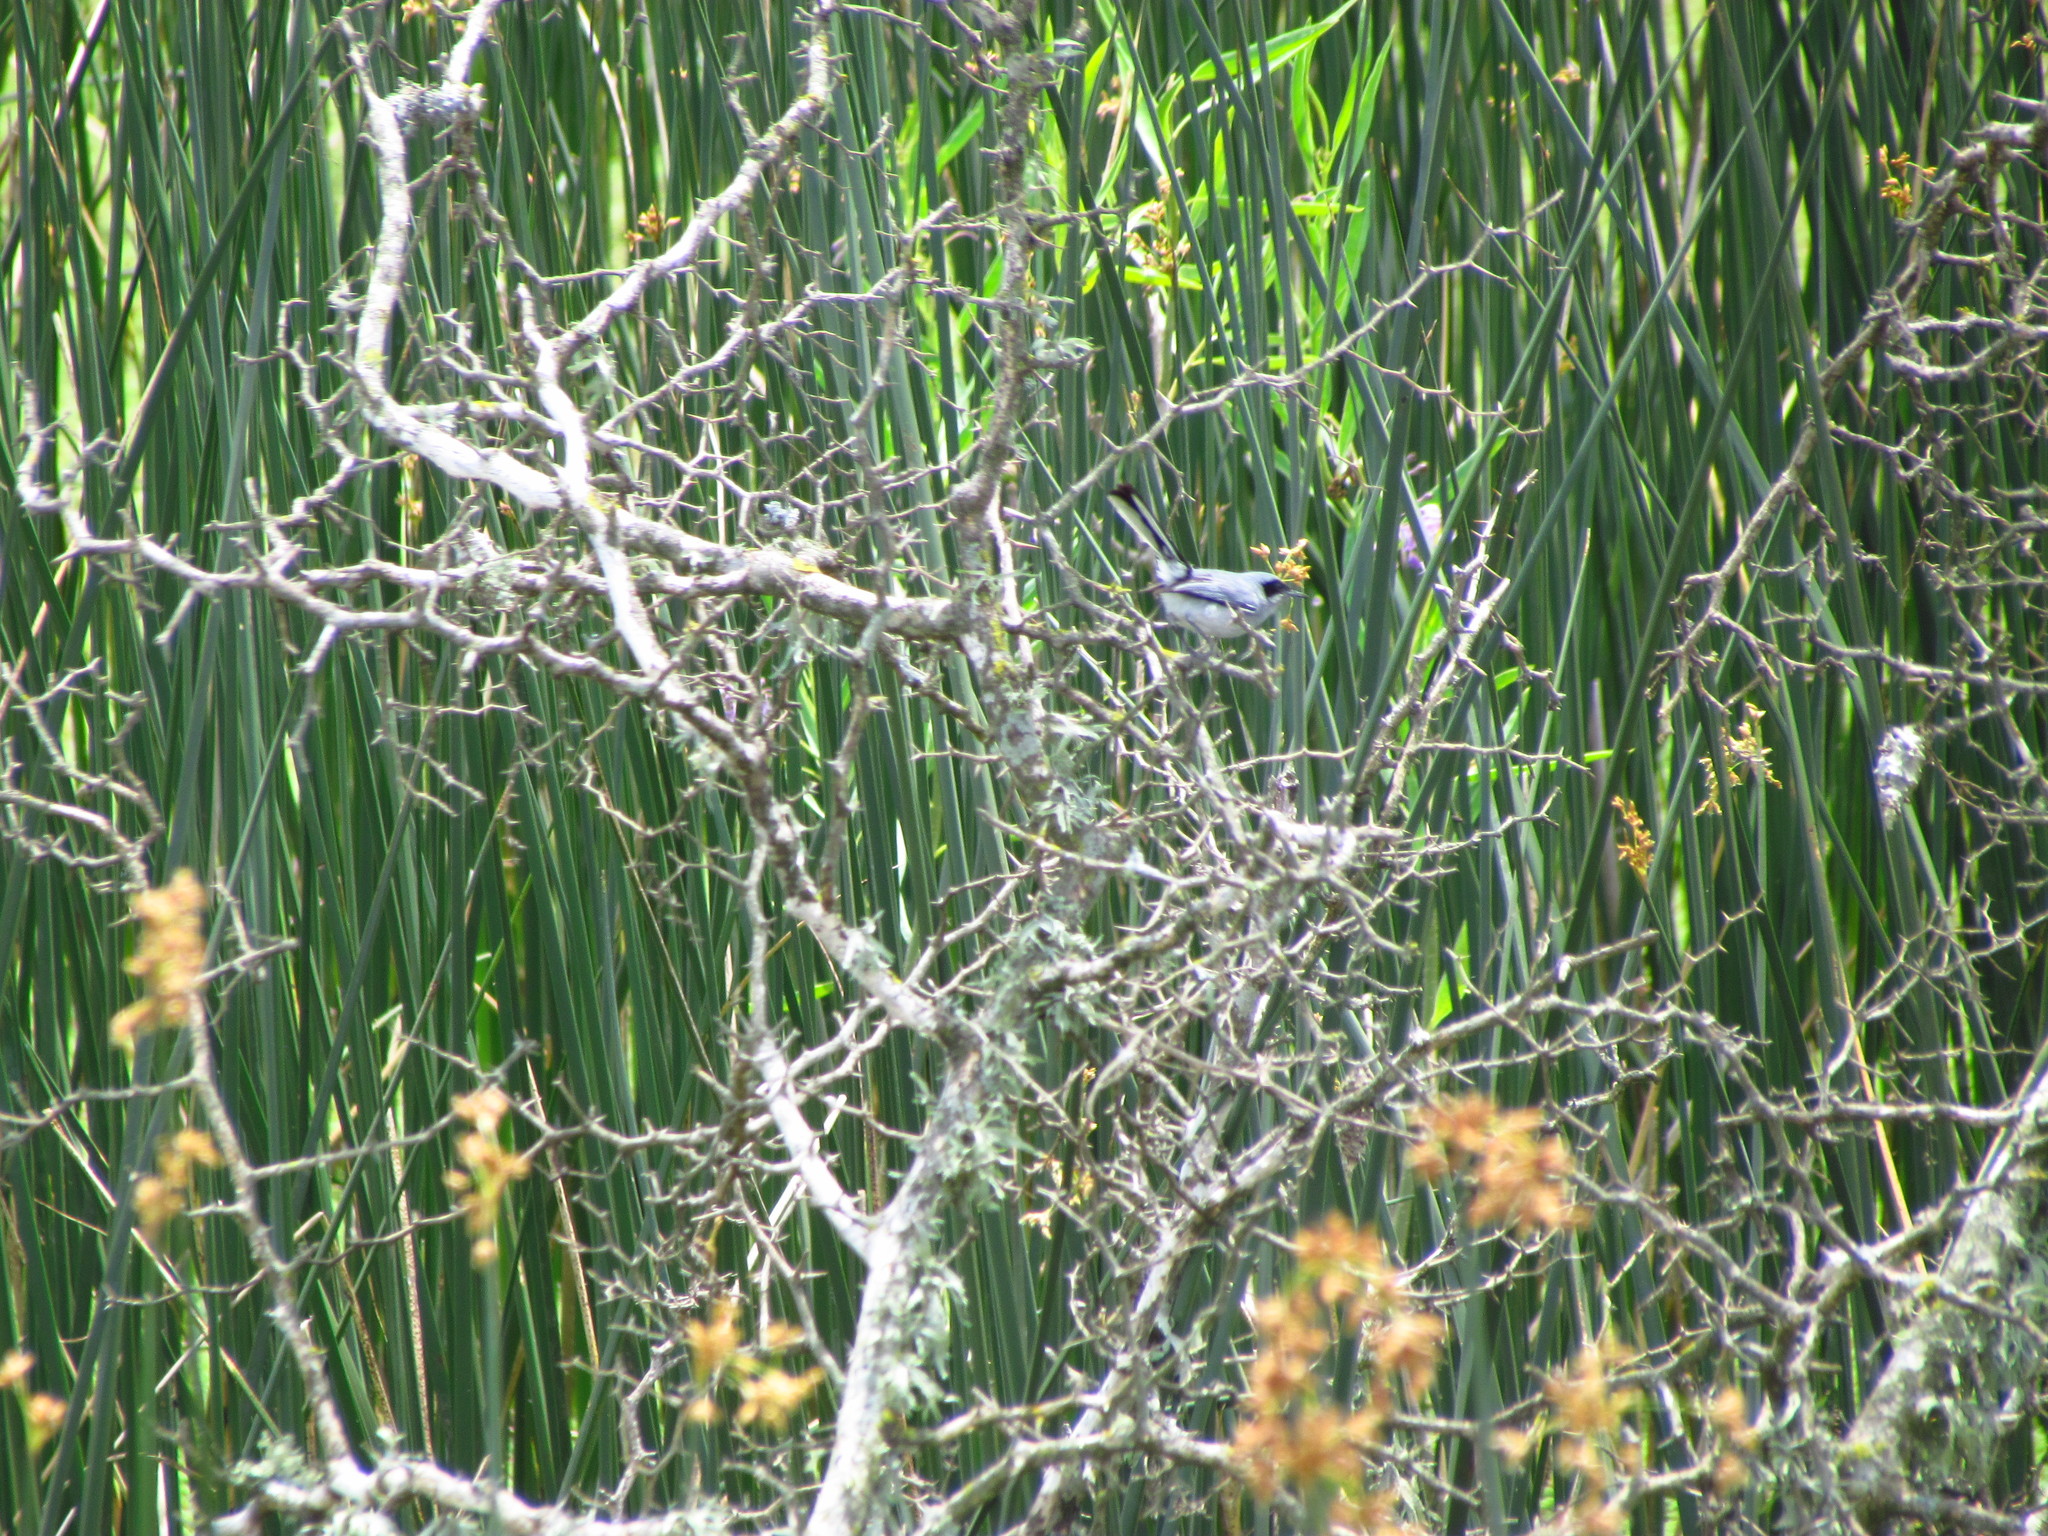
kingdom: Animalia
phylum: Chordata
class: Aves
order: Passeriformes
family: Polioptilidae
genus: Polioptila
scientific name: Polioptila dumicola
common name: Masked gnatcatcher
